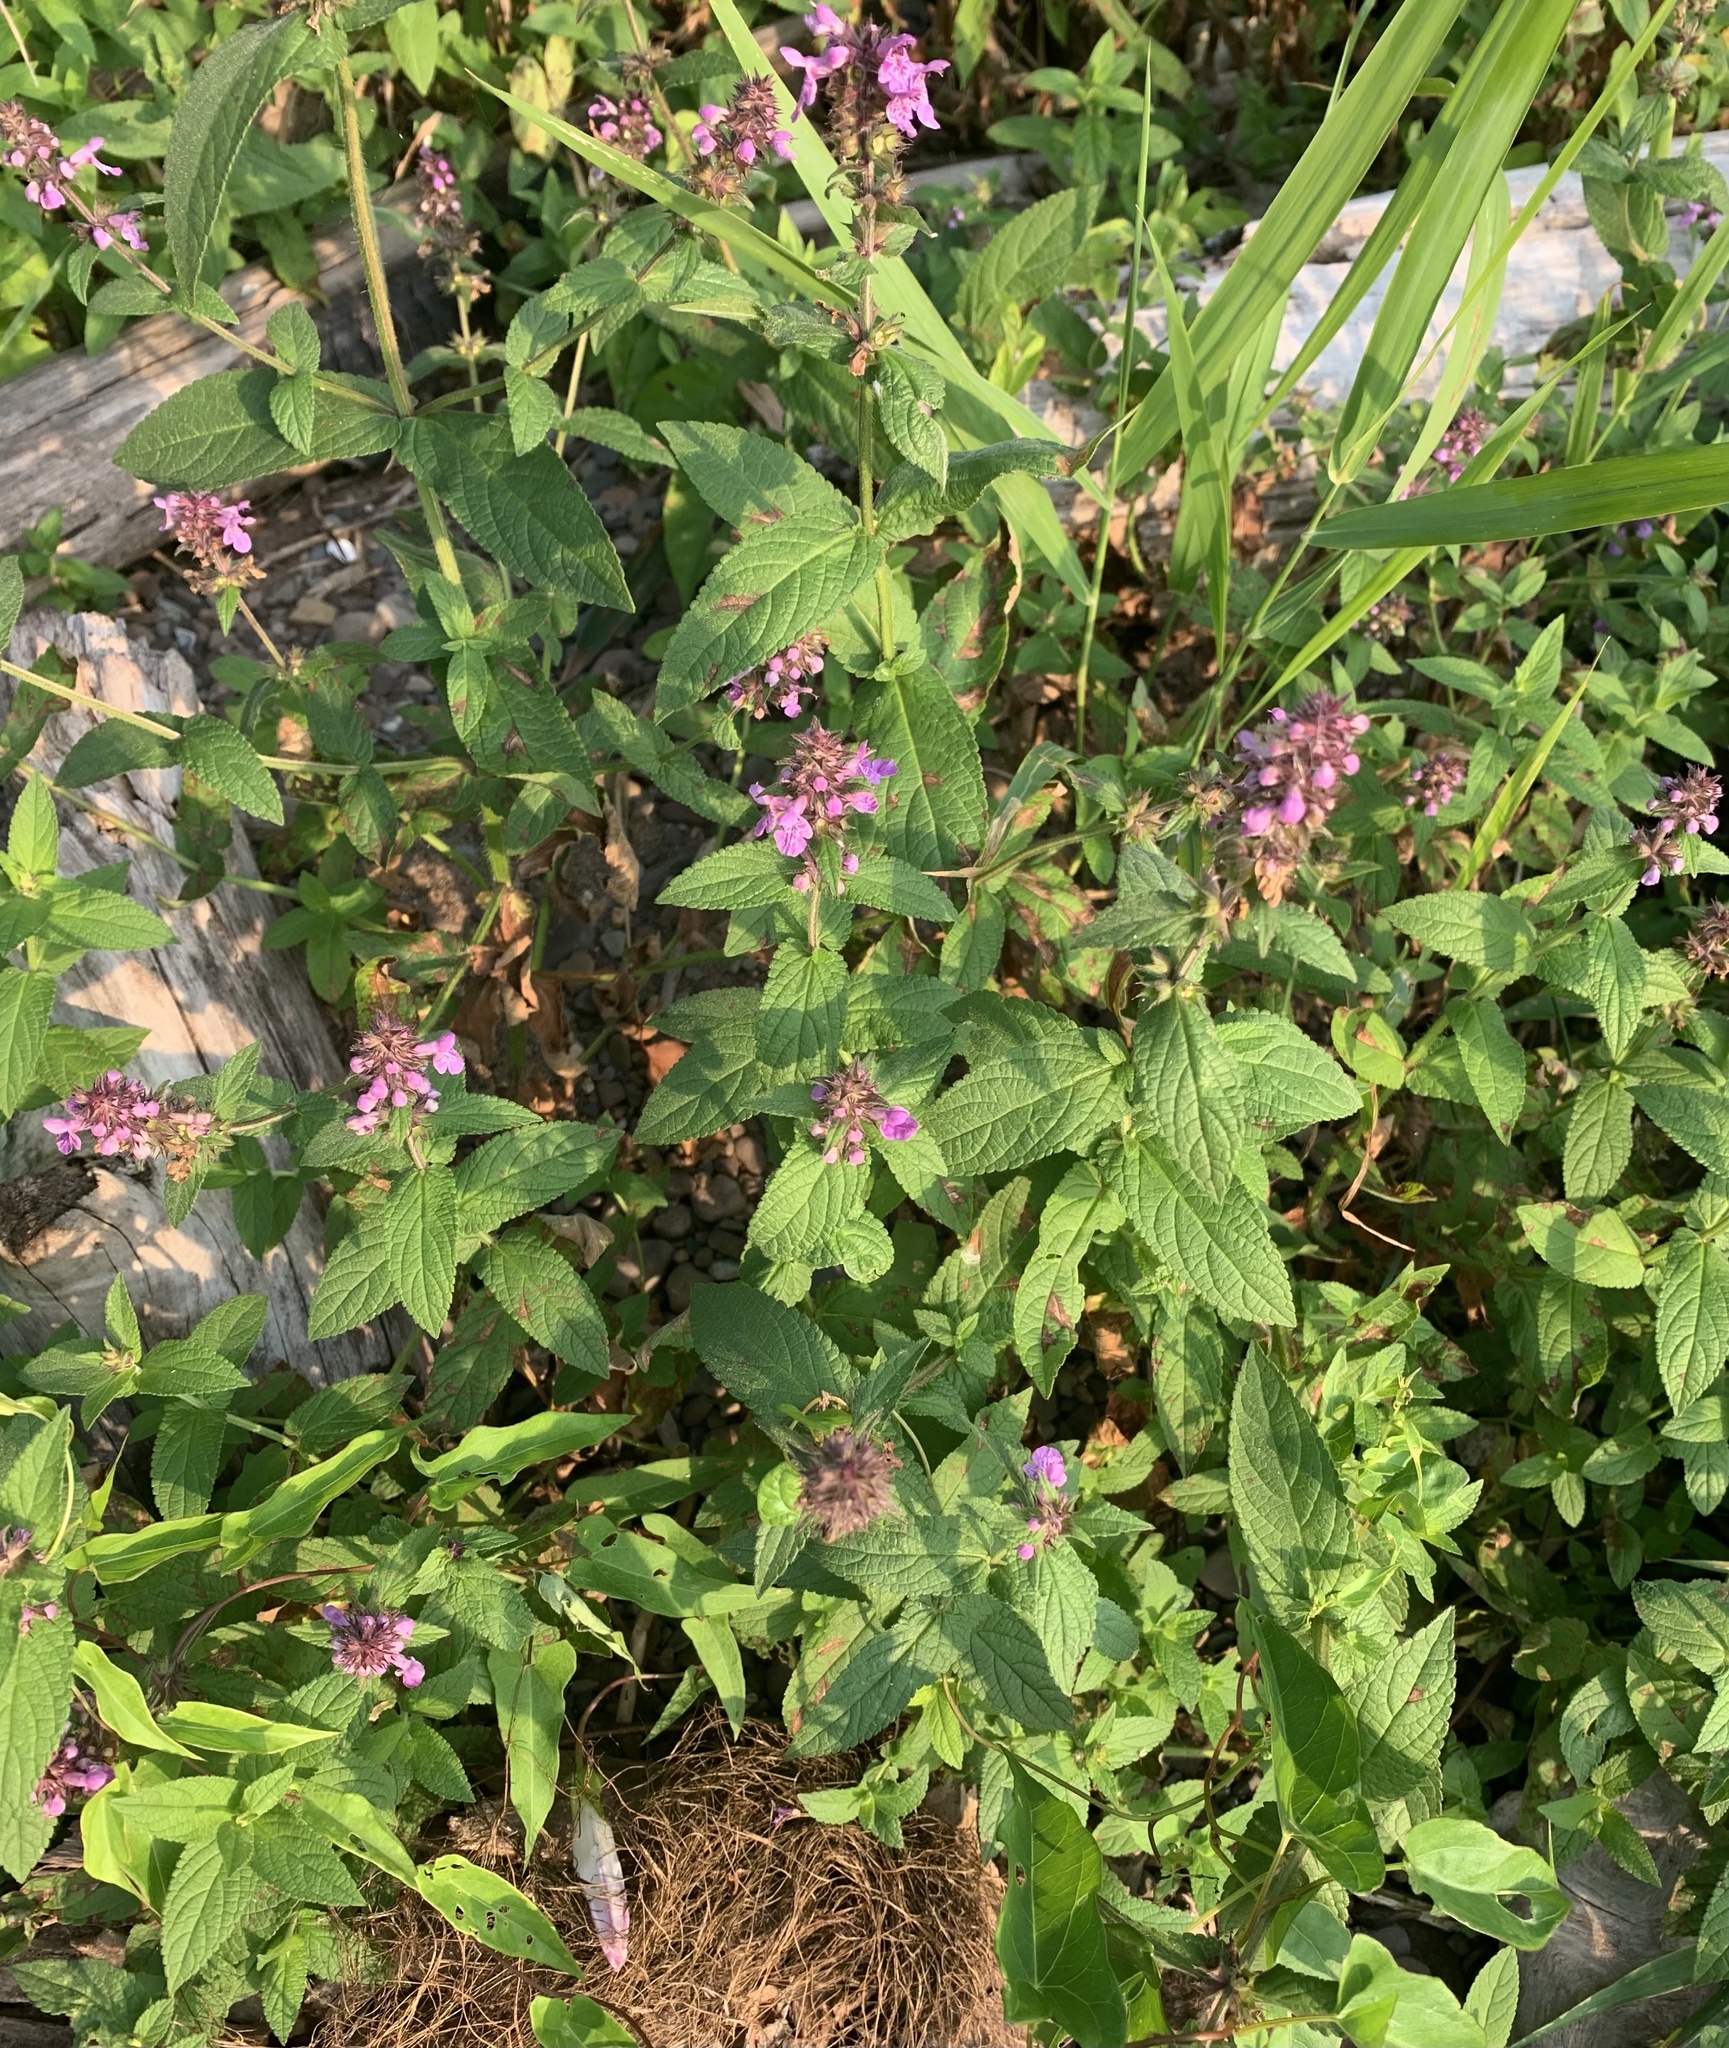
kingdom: Plantae
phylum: Tracheophyta
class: Magnoliopsida
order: Lamiales
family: Lamiaceae
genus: Stachys
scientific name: Stachys palustris
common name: Marsh woundwort
